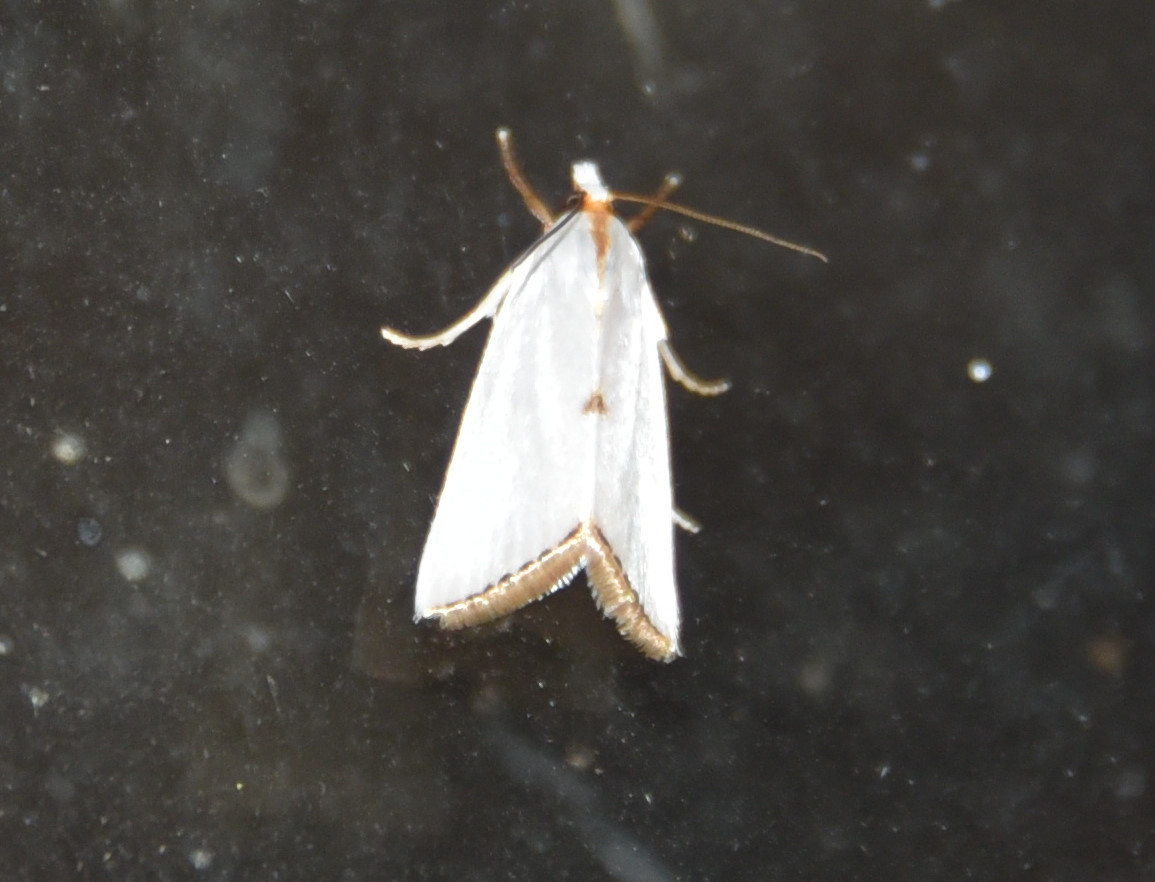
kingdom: Animalia
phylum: Arthropoda
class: Insecta
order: Lepidoptera
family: Crambidae
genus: Argyria
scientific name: Argyria nivalis
